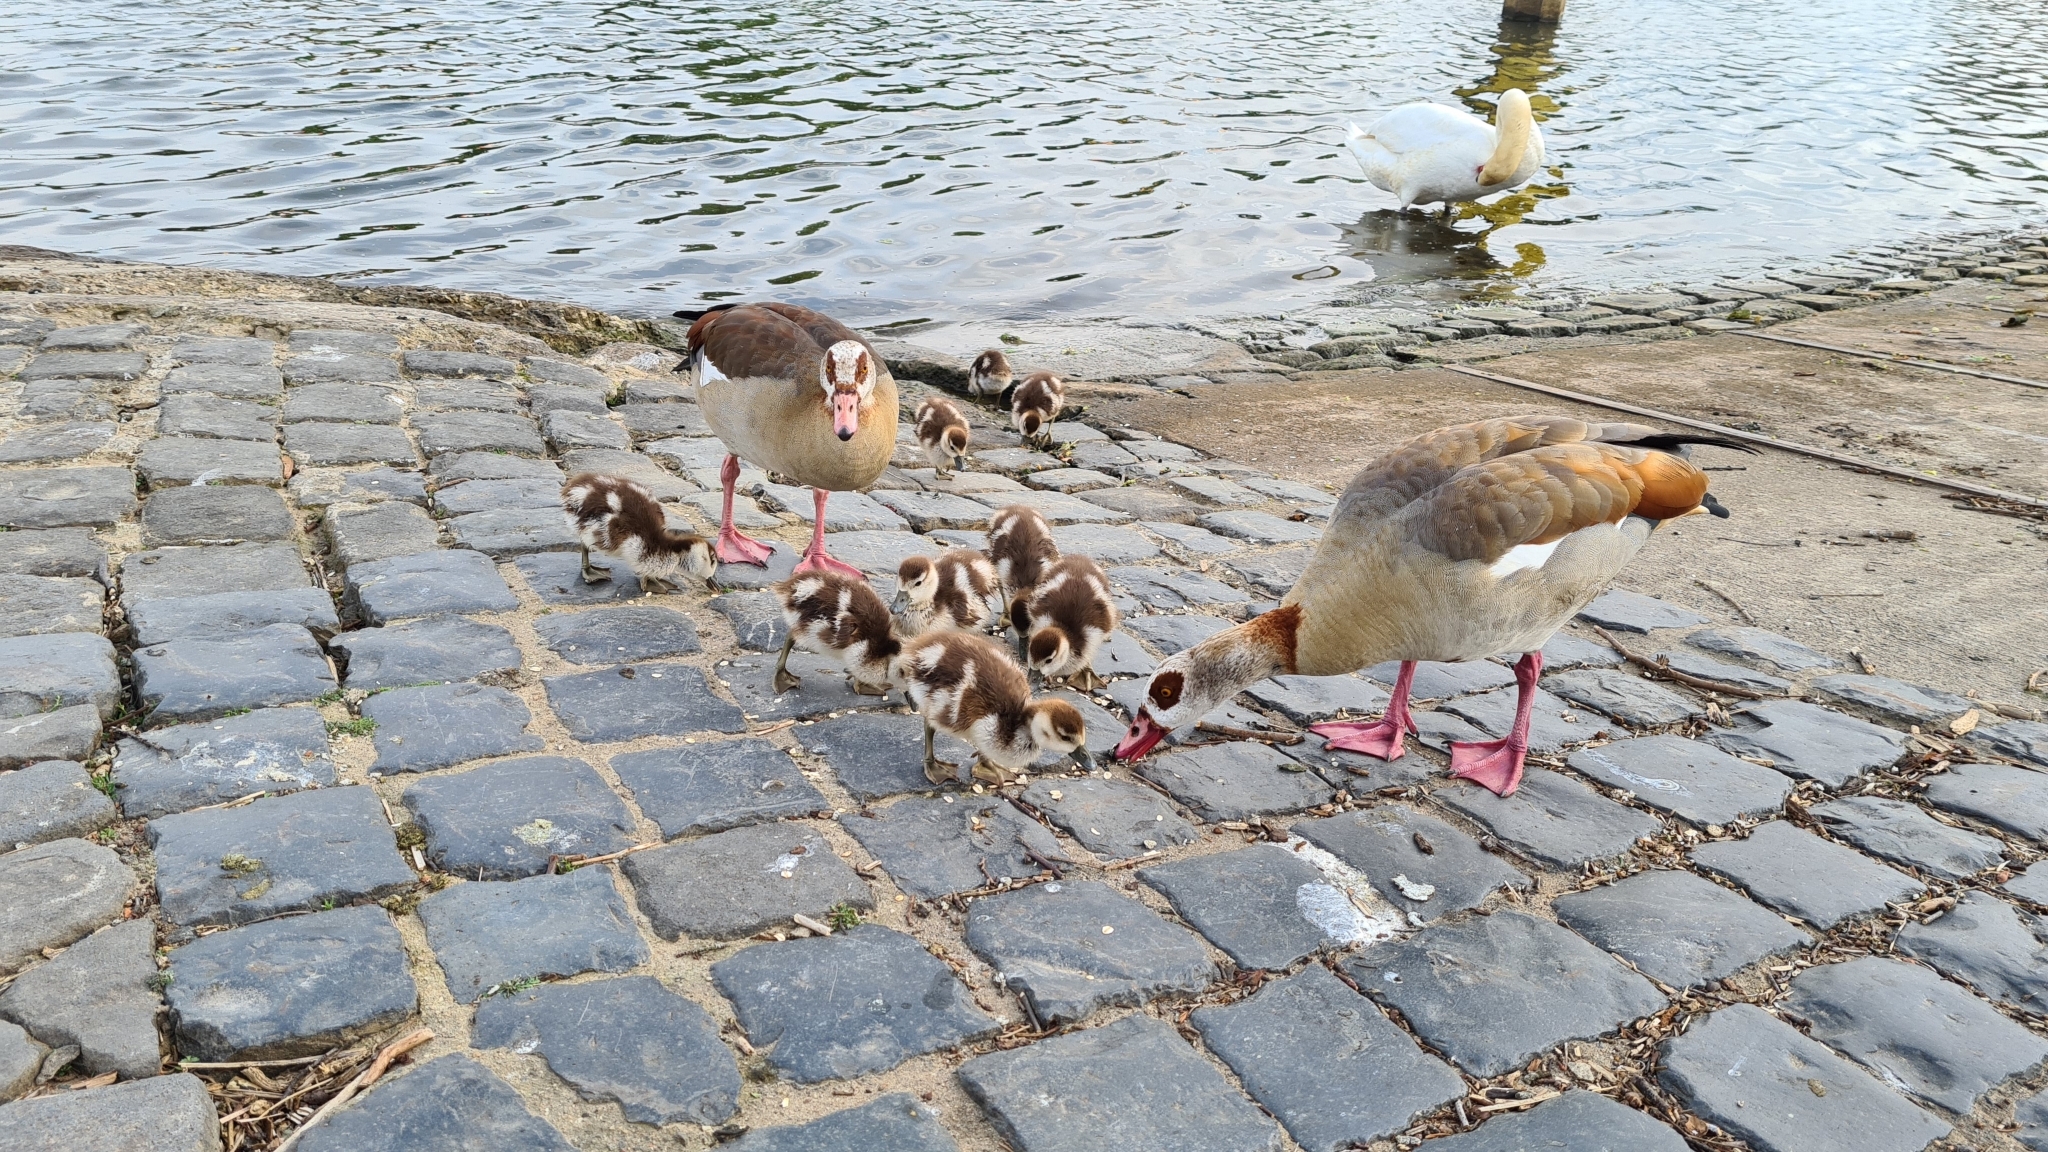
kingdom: Animalia
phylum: Chordata
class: Aves
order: Anseriformes
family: Anatidae
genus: Alopochen
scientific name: Alopochen aegyptiaca
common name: Egyptian goose
